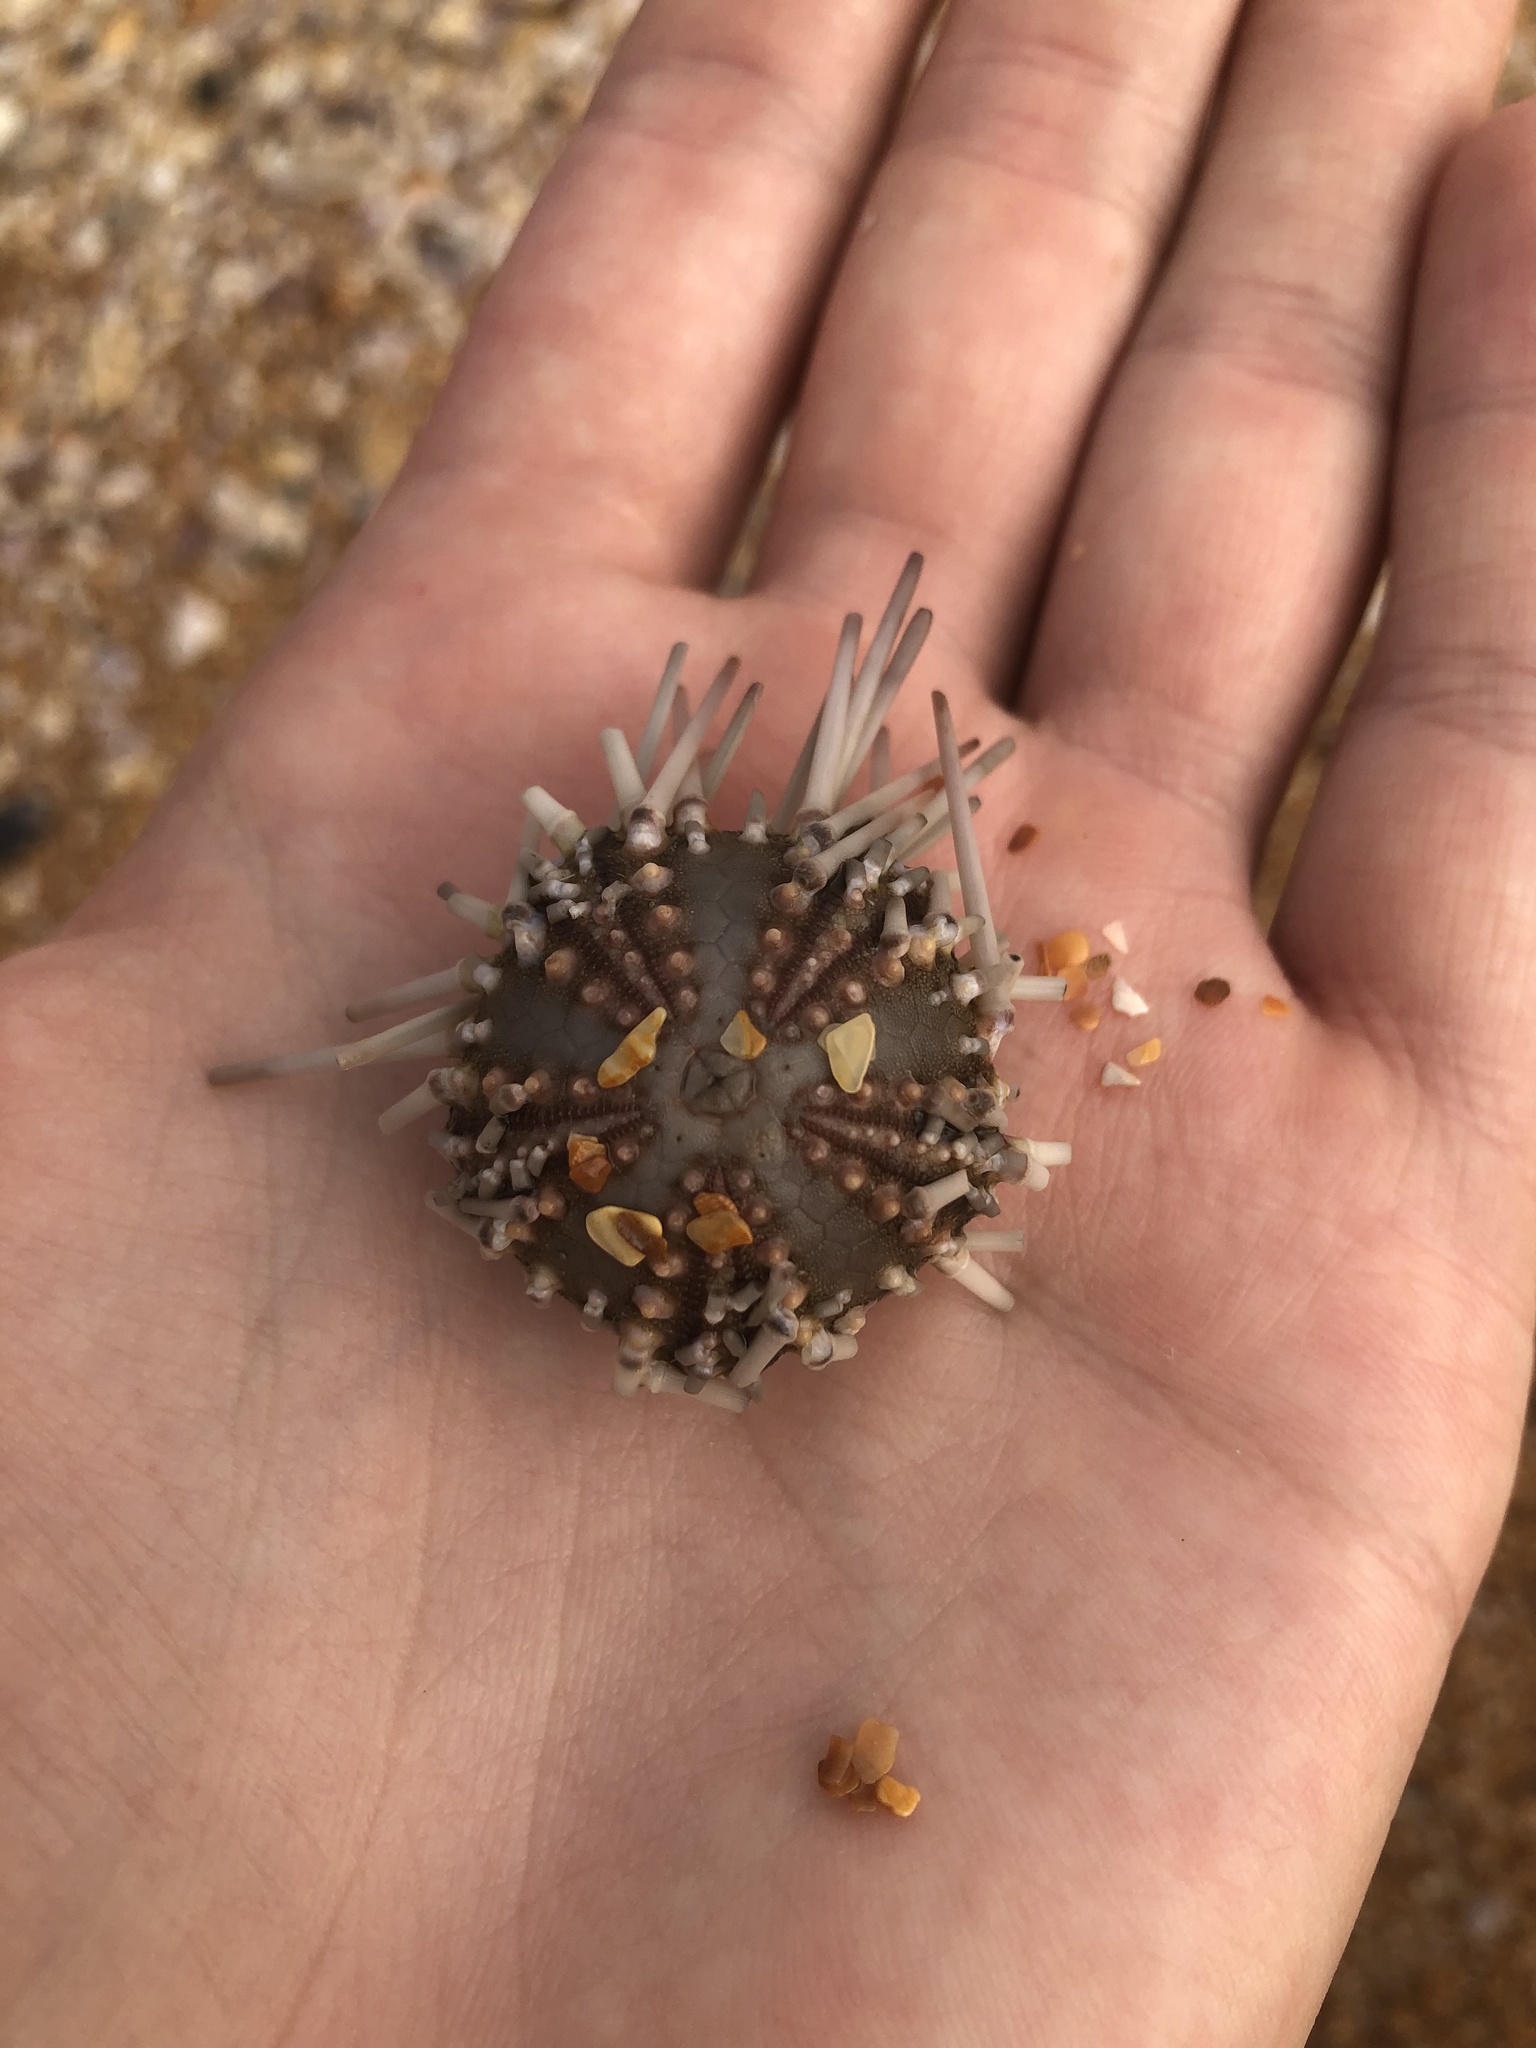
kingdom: Animalia
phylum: Echinodermata
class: Echinoidea
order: Arbacioida
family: Arbaciidae
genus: Arbacia
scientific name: Arbacia punctulata
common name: Purple-spined sea urchin
